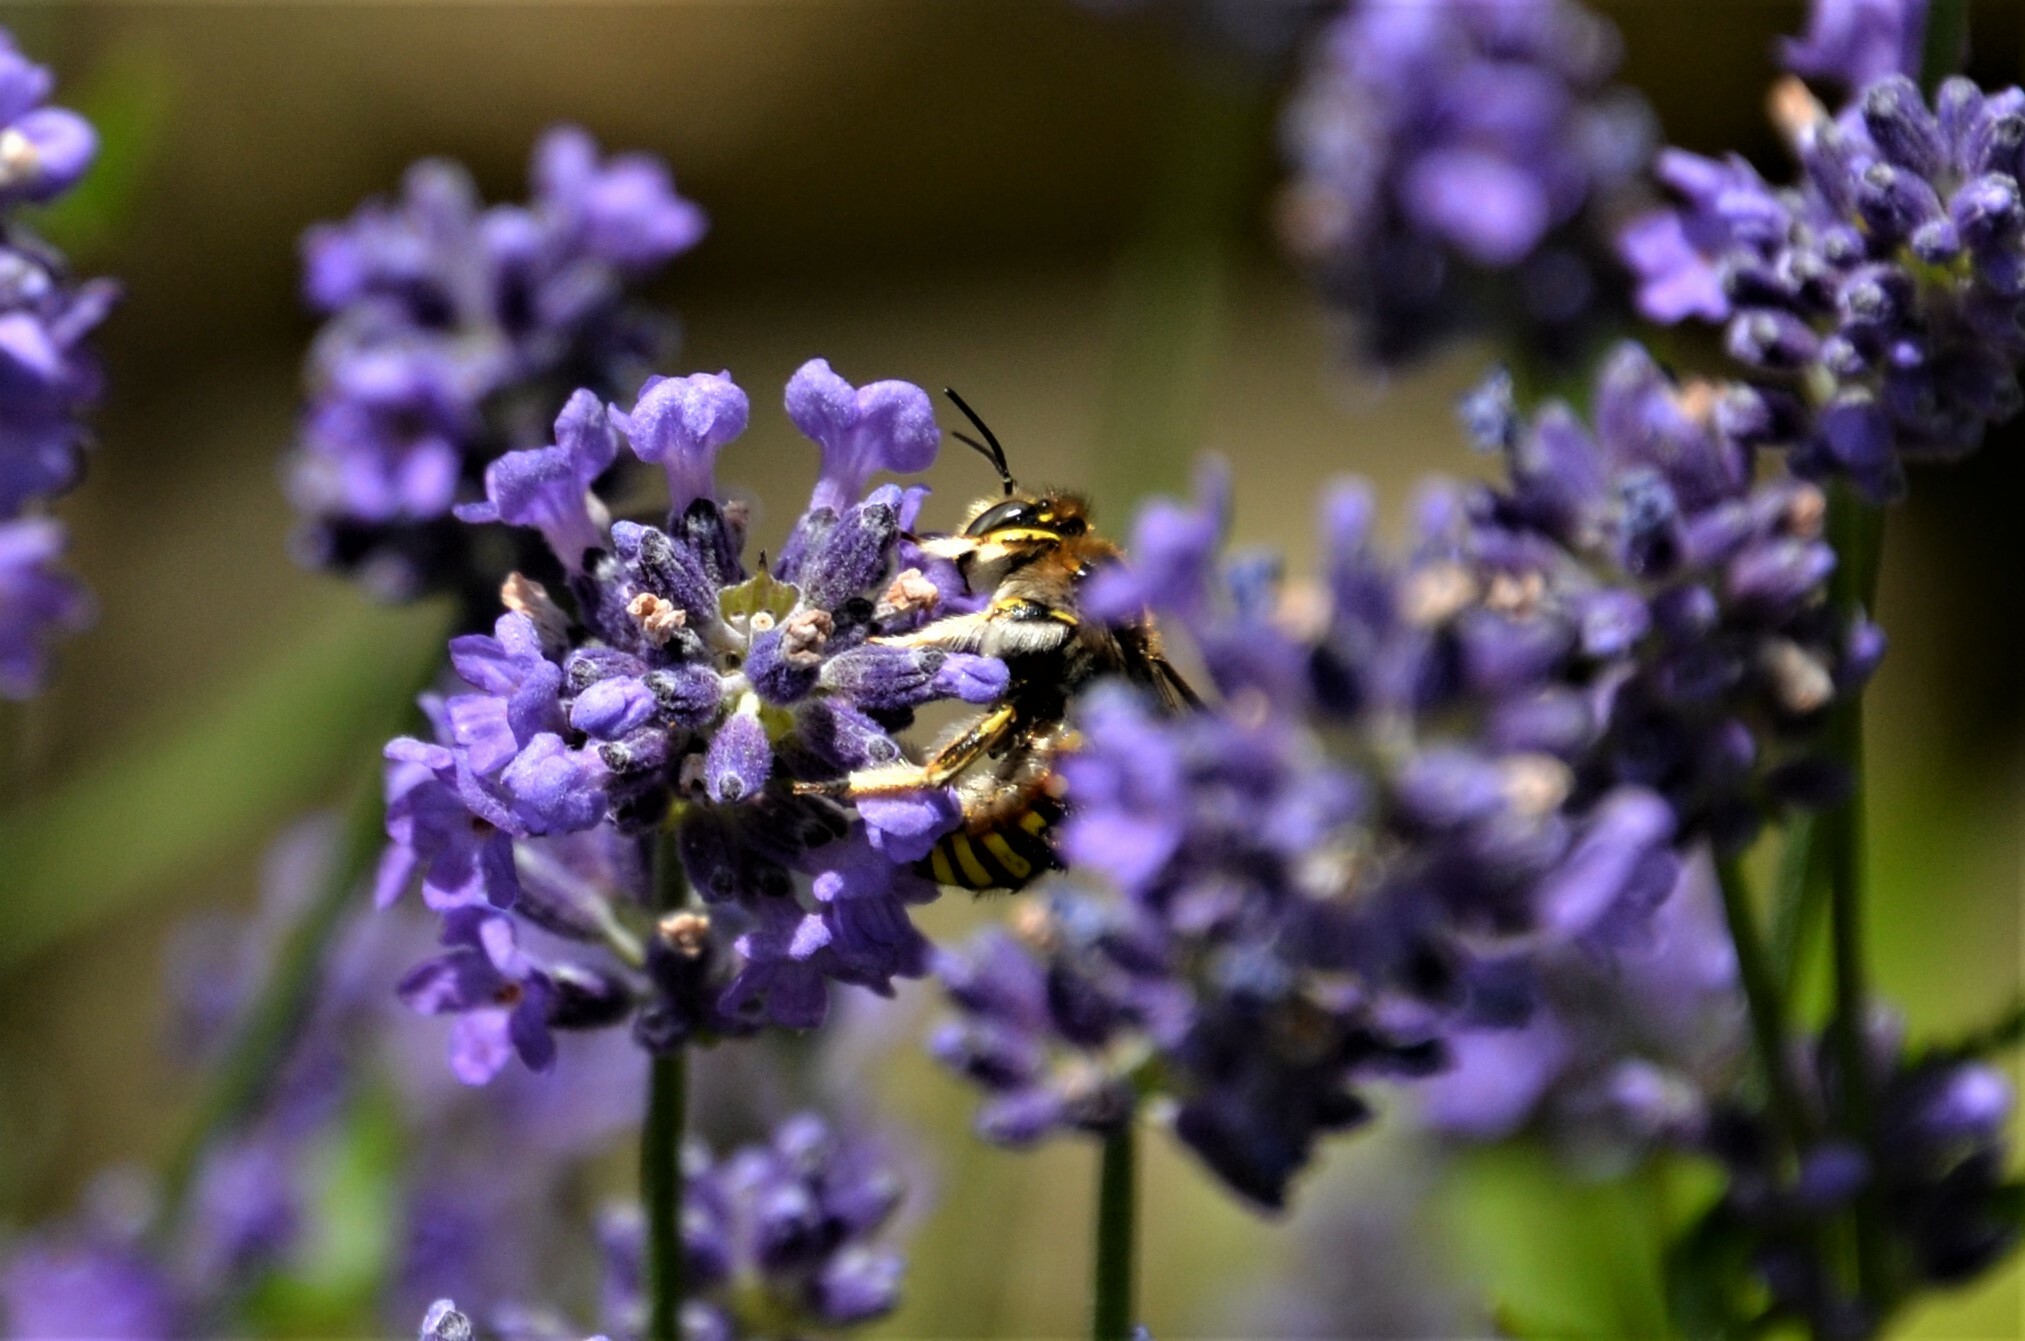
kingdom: Animalia
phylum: Arthropoda
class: Insecta
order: Hymenoptera
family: Megachilidae
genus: Anthidium
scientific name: Anthidium manicatum
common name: Wool carder bee
